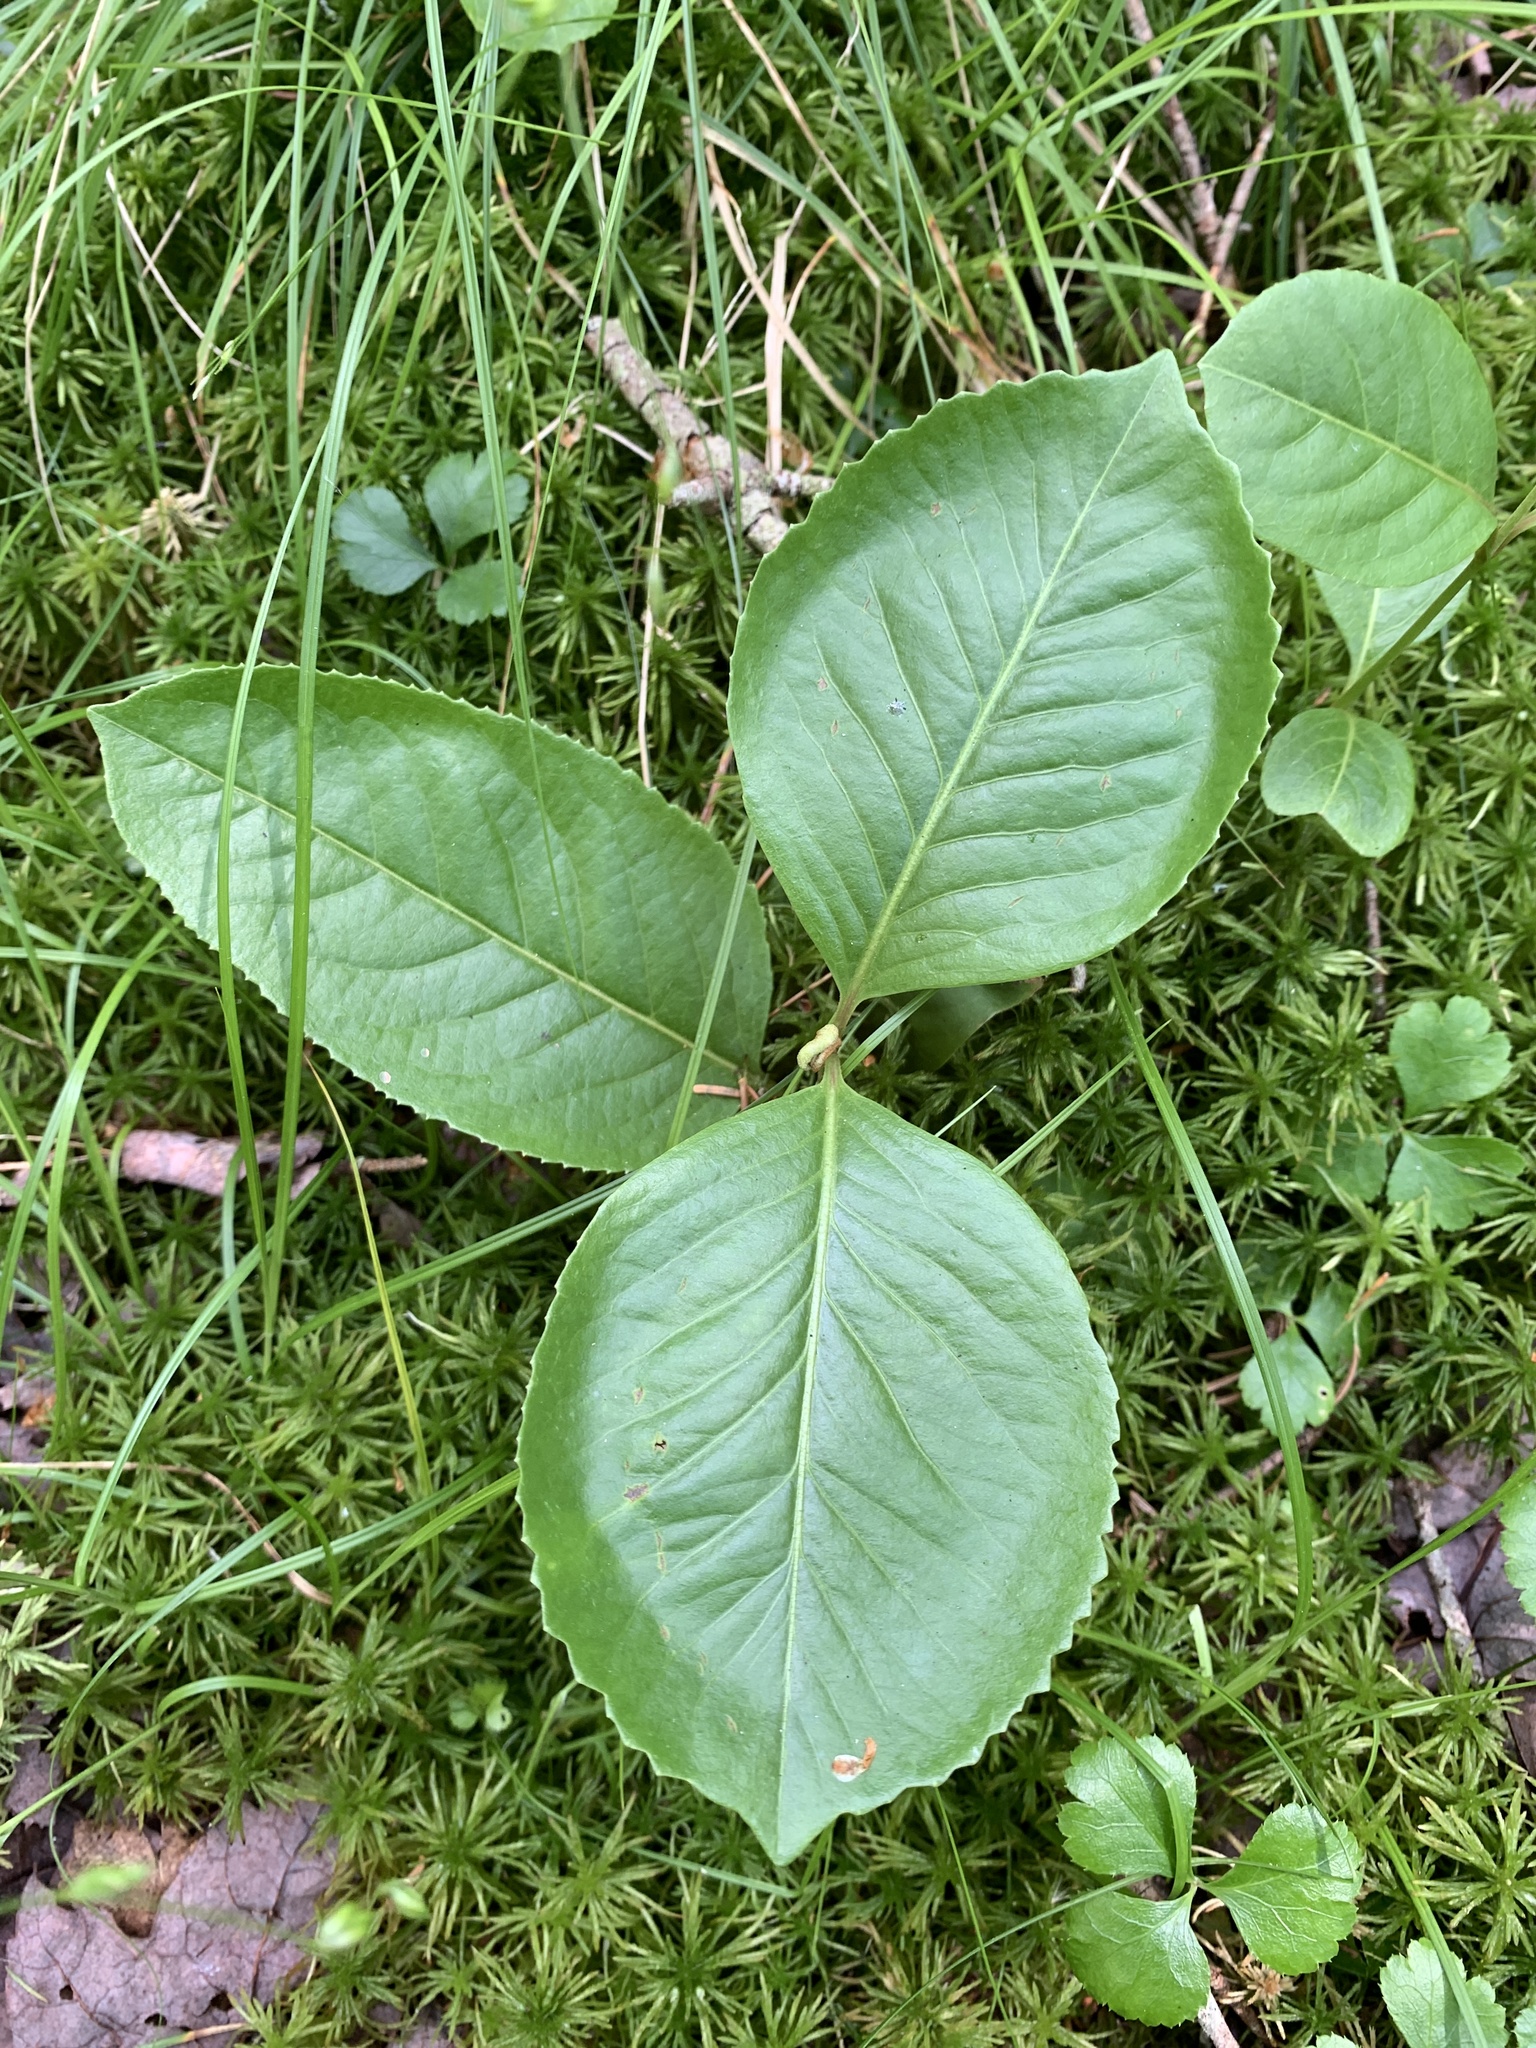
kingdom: Plantae
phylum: Tracheophyta
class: Magnoliopsida
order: Dipsacales
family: Viburnaceae
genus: Viburnum
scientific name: Viburnum cassinoides
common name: Swamp haw
